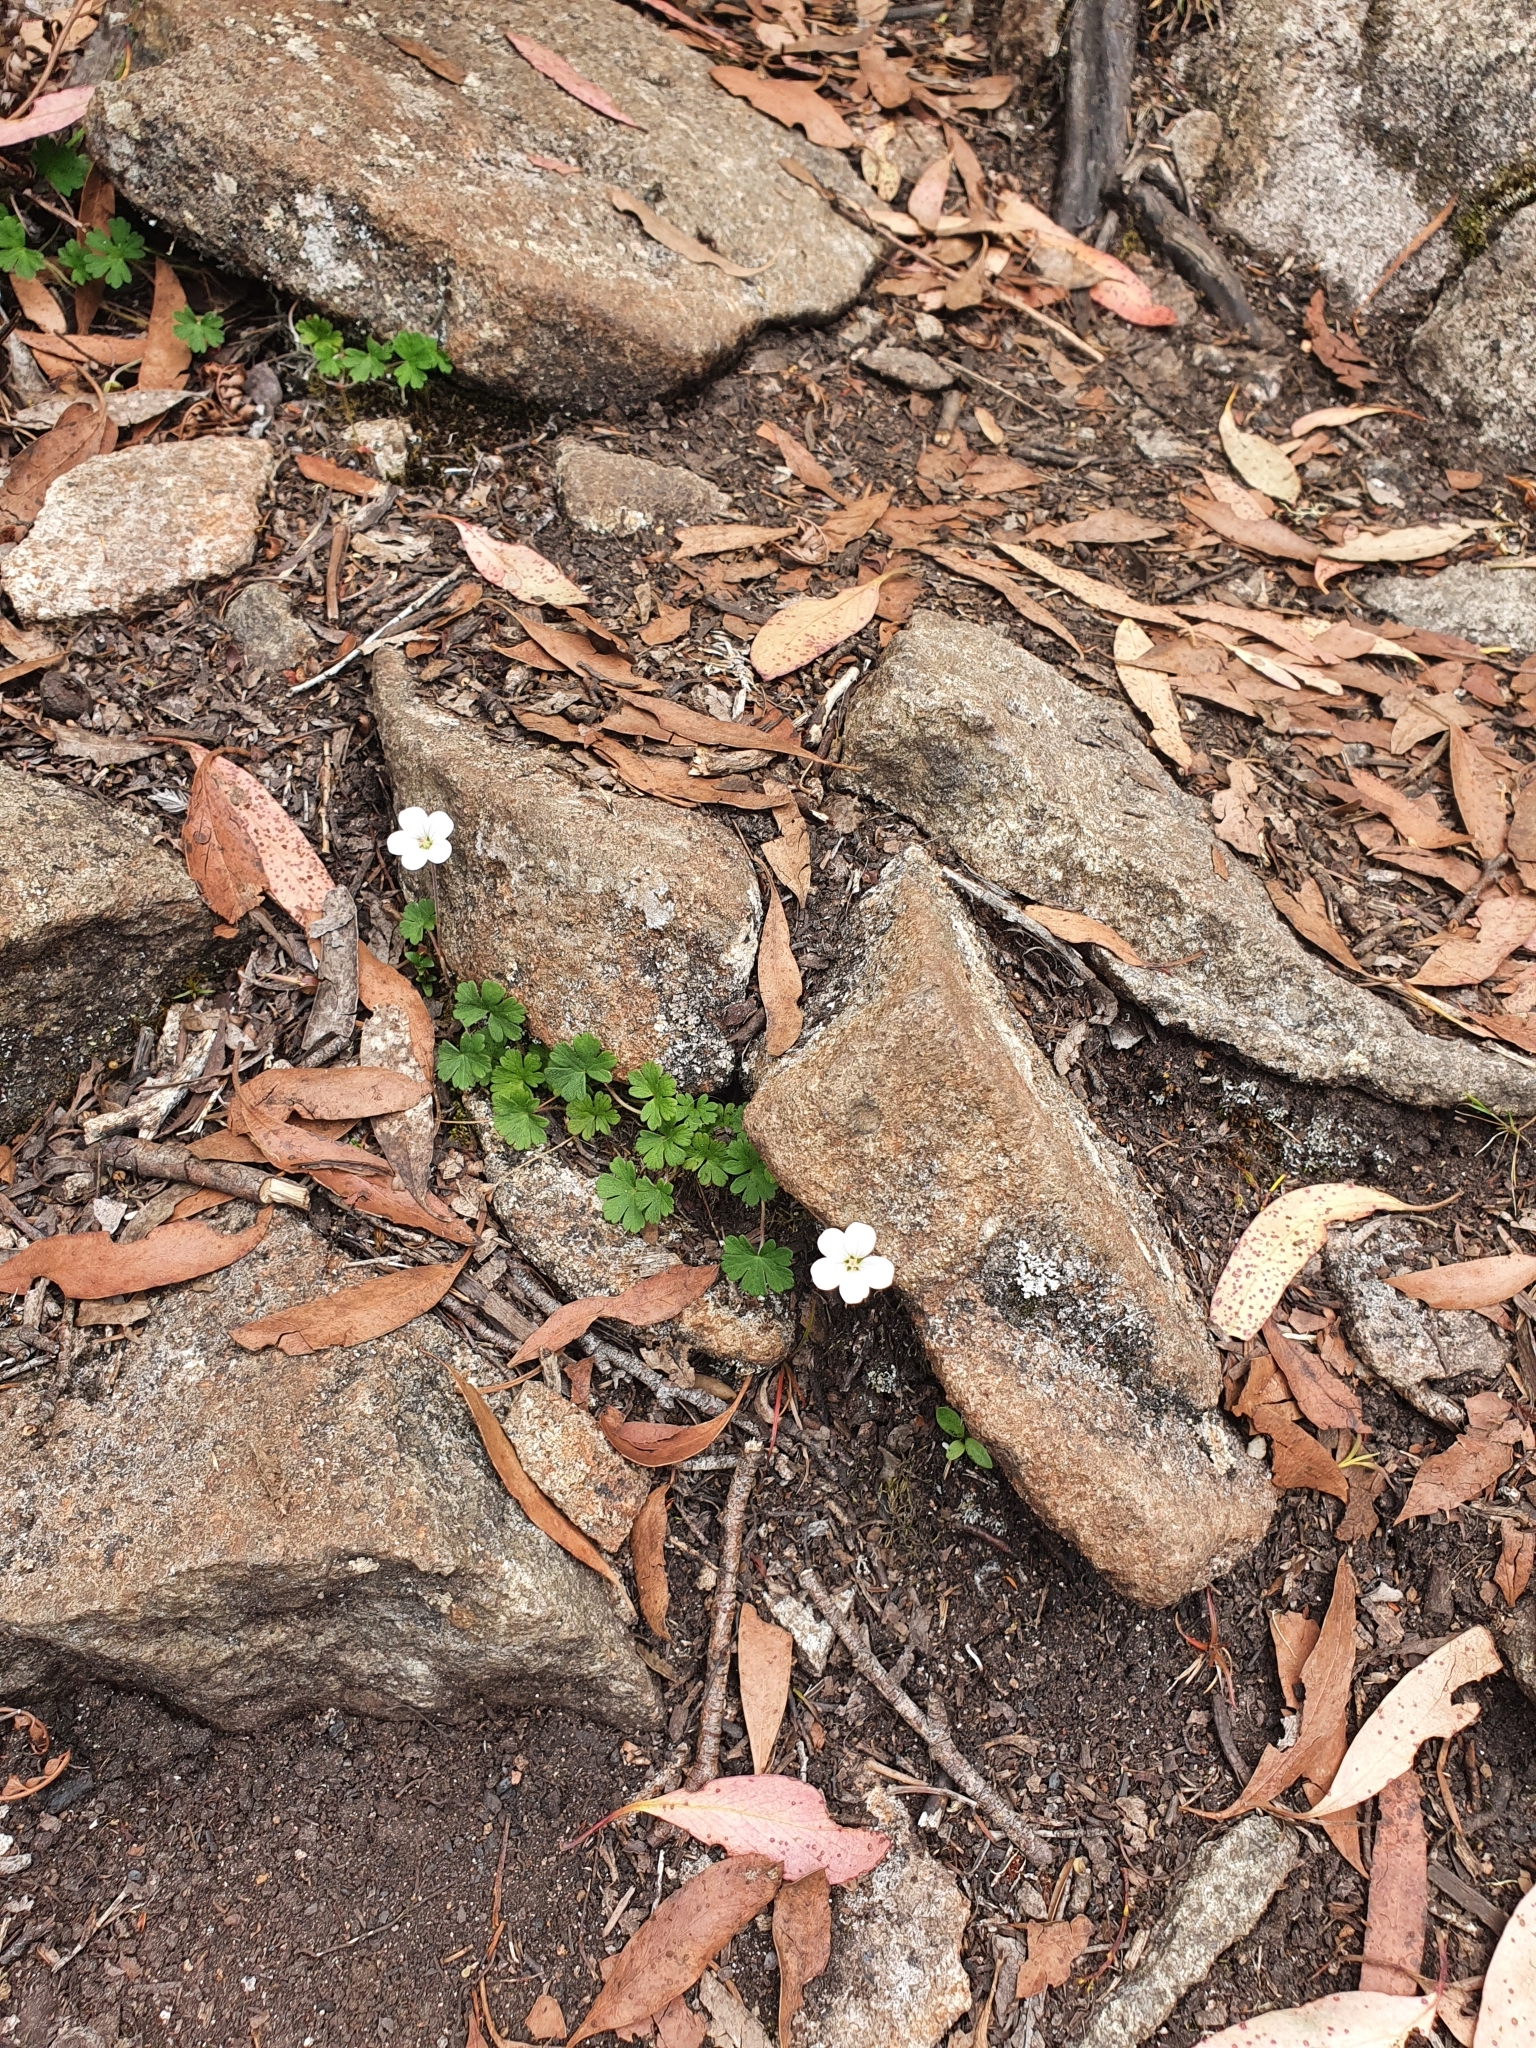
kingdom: Plantae
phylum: Tracheophyta
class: Magnoliopsida
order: Geraniales
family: Geraniaceae
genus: Geranium
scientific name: Geranium potentilloides
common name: Cinquefoil geranium
